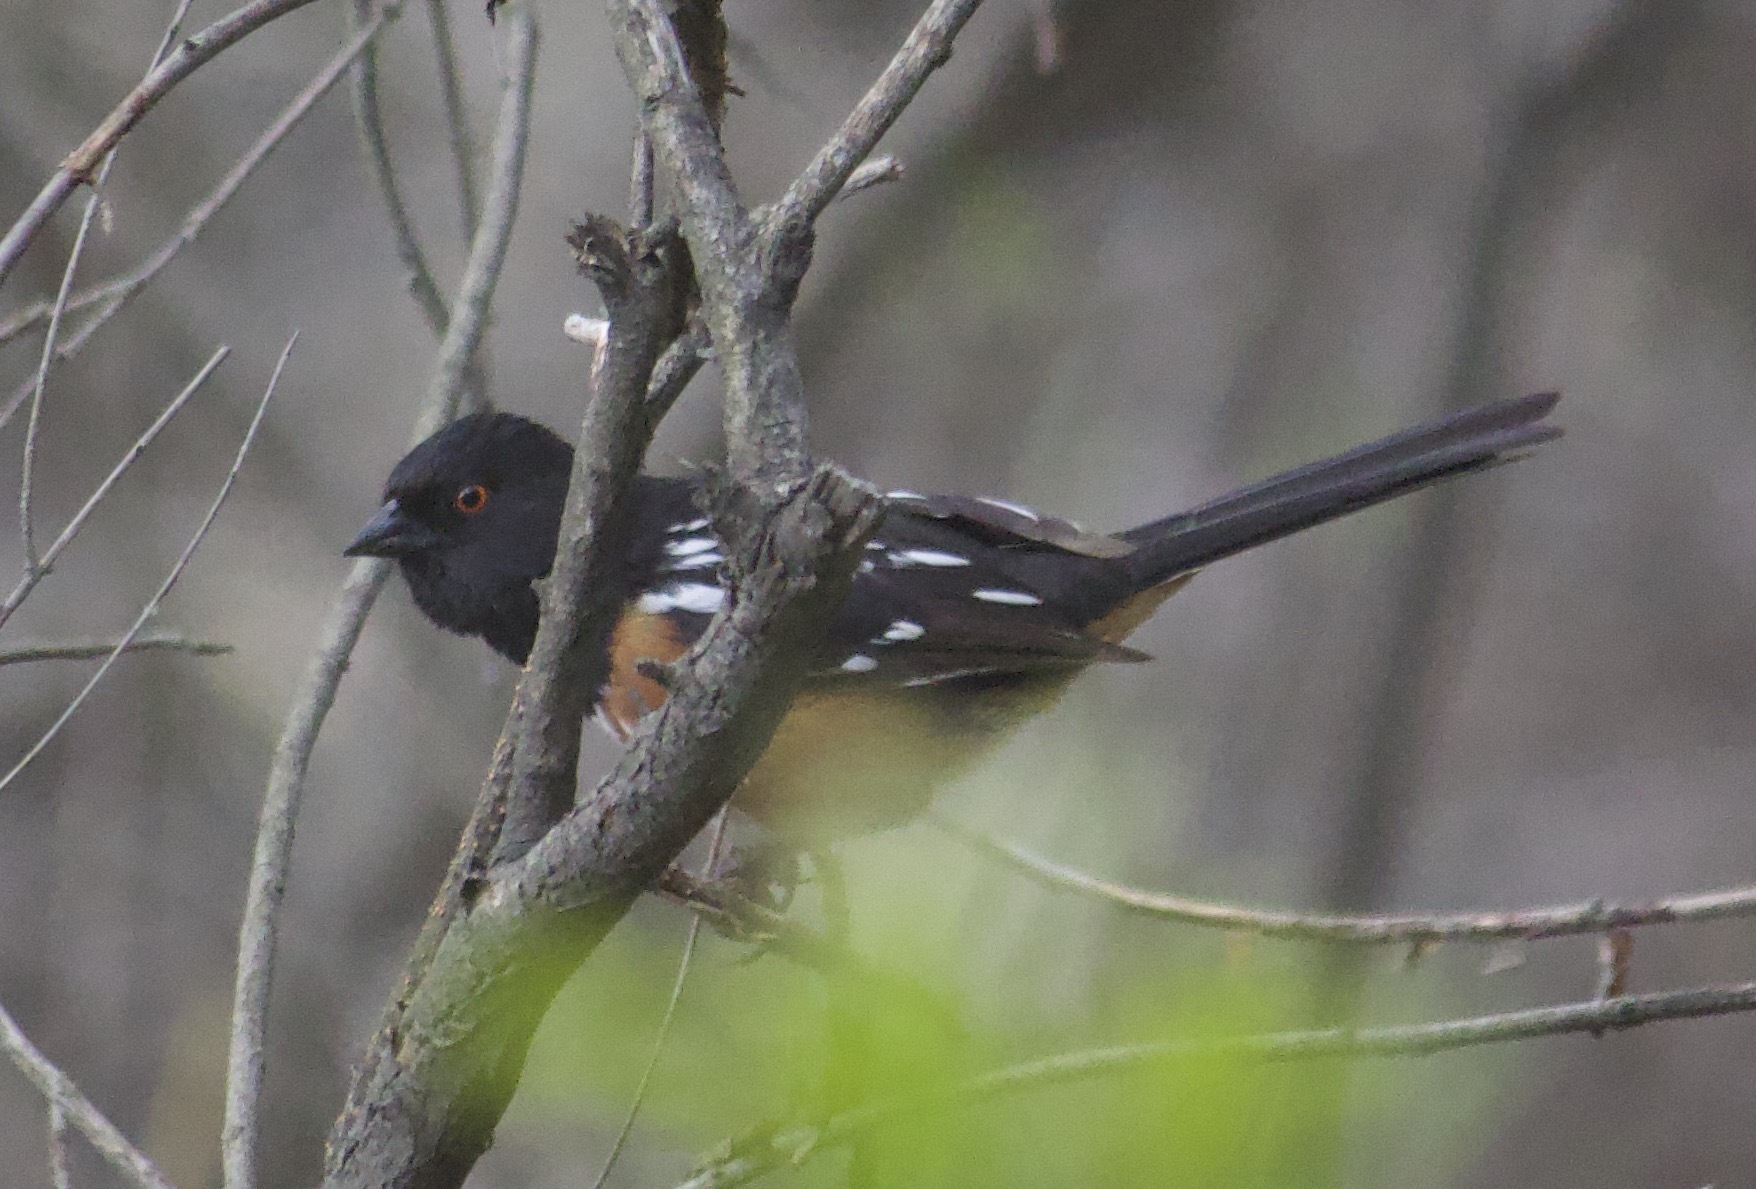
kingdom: Animalia
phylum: Chordata
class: Aves
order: Passeriformes
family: Passerellidae
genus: Pipilo
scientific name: Pipilo maculatus
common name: Spotted towhee
